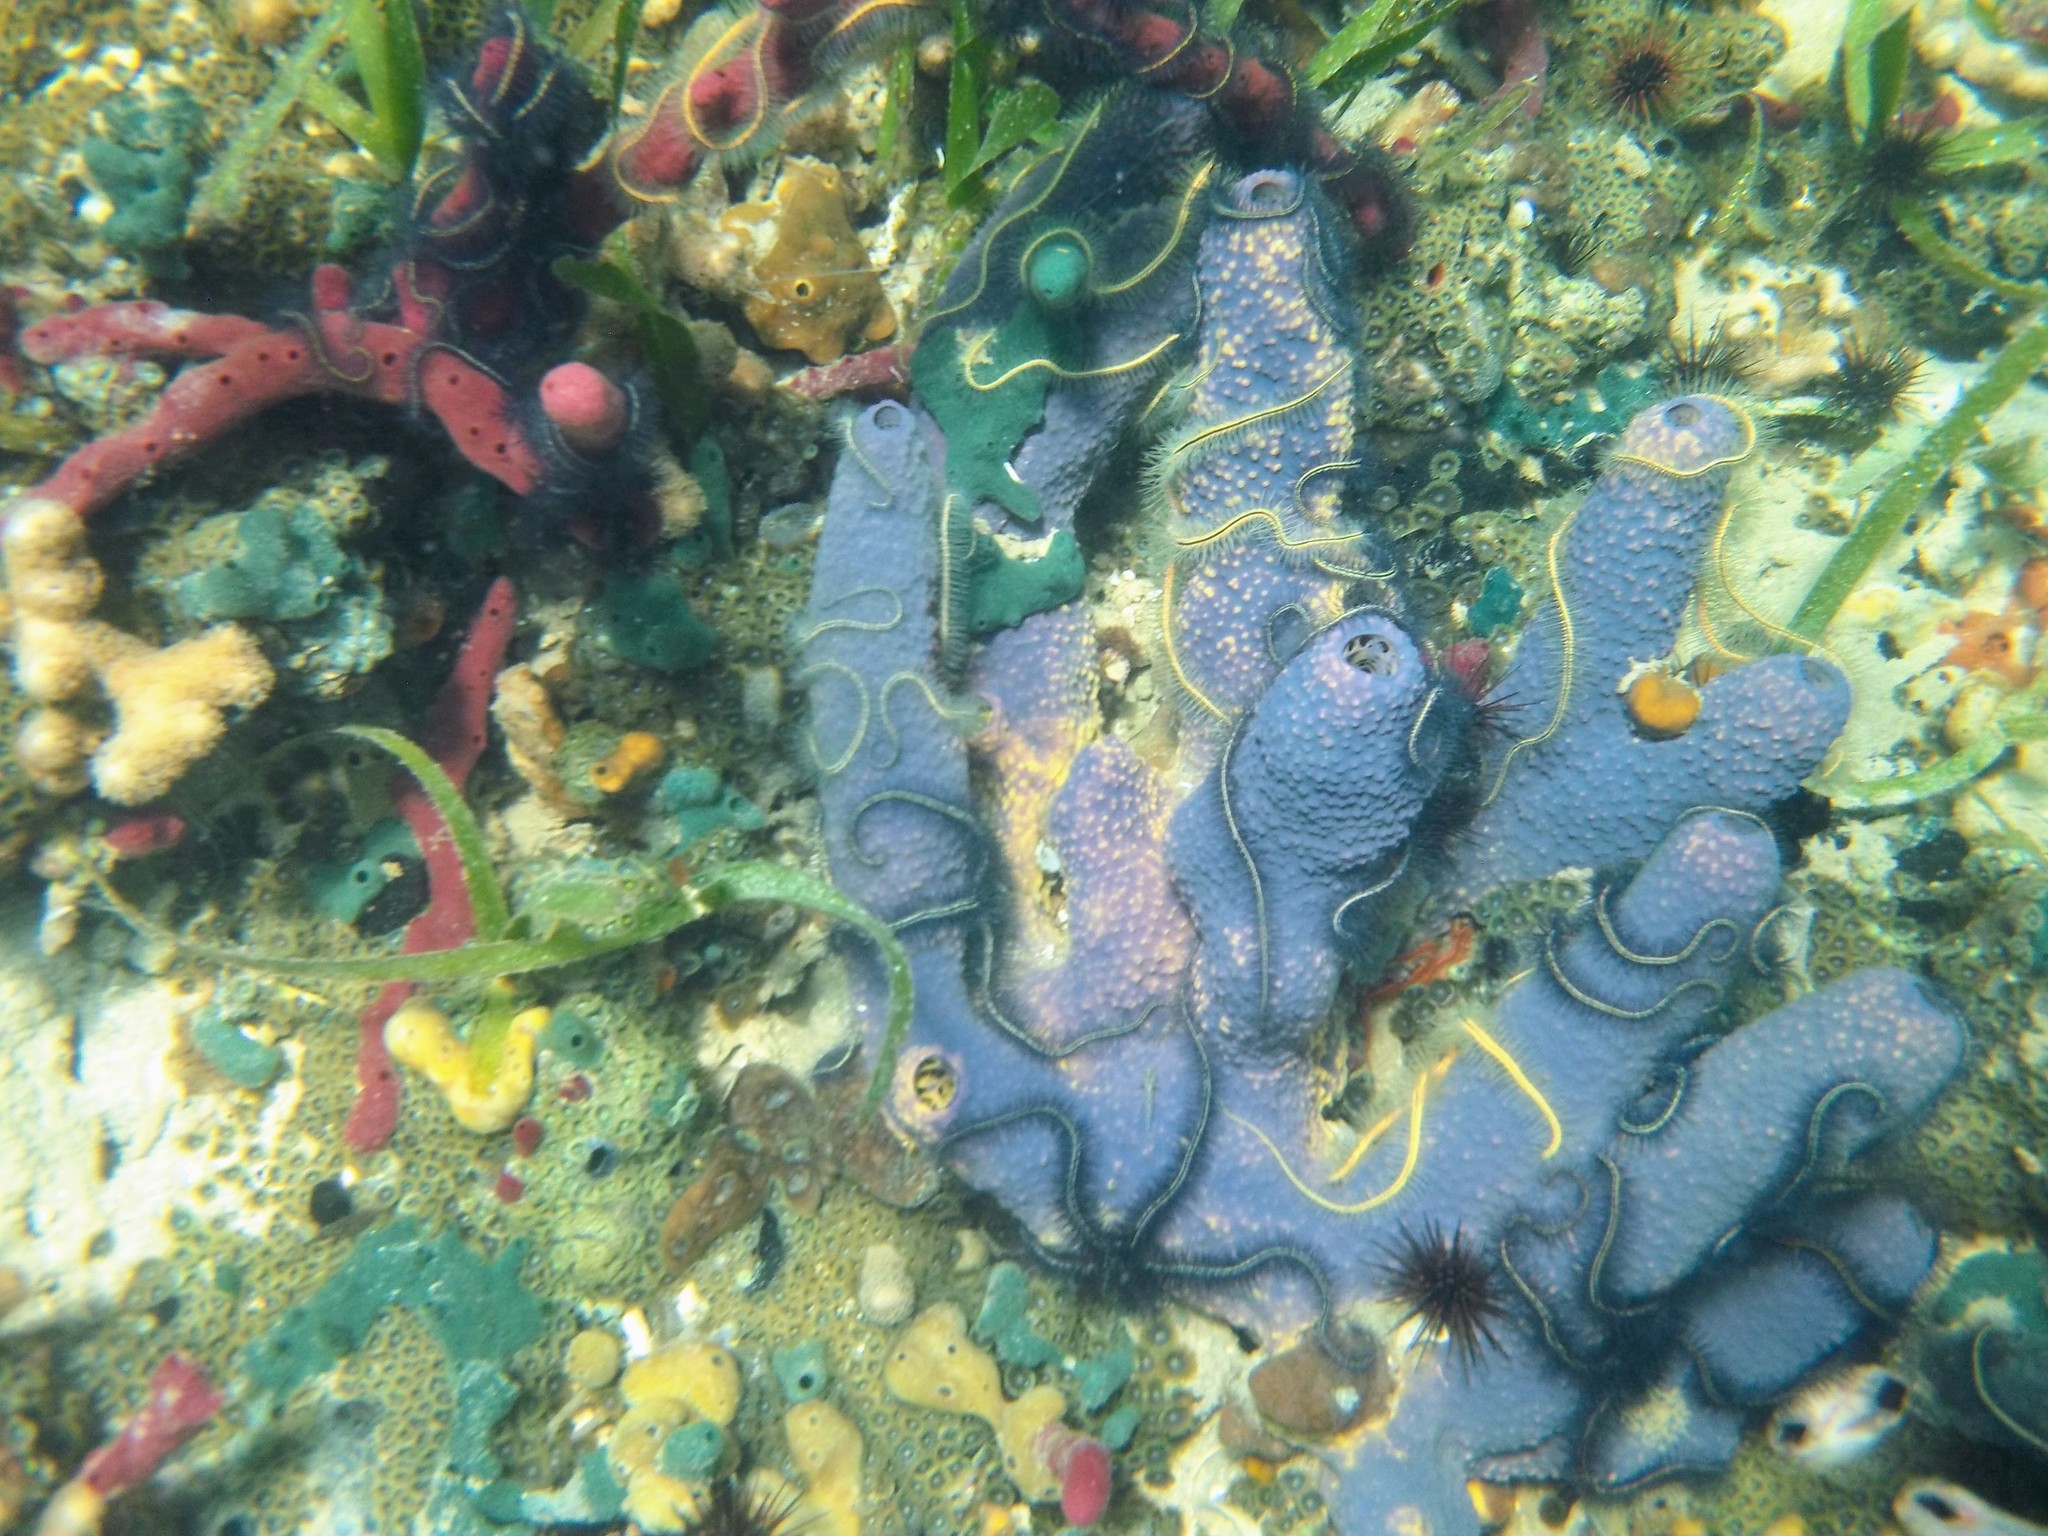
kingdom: Animalia
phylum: Porifera
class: Demospongiae
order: Verongiida
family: Aplysinidae
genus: Aiolochroia
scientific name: Aiolochroia crassa
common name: Branching tube sponge
